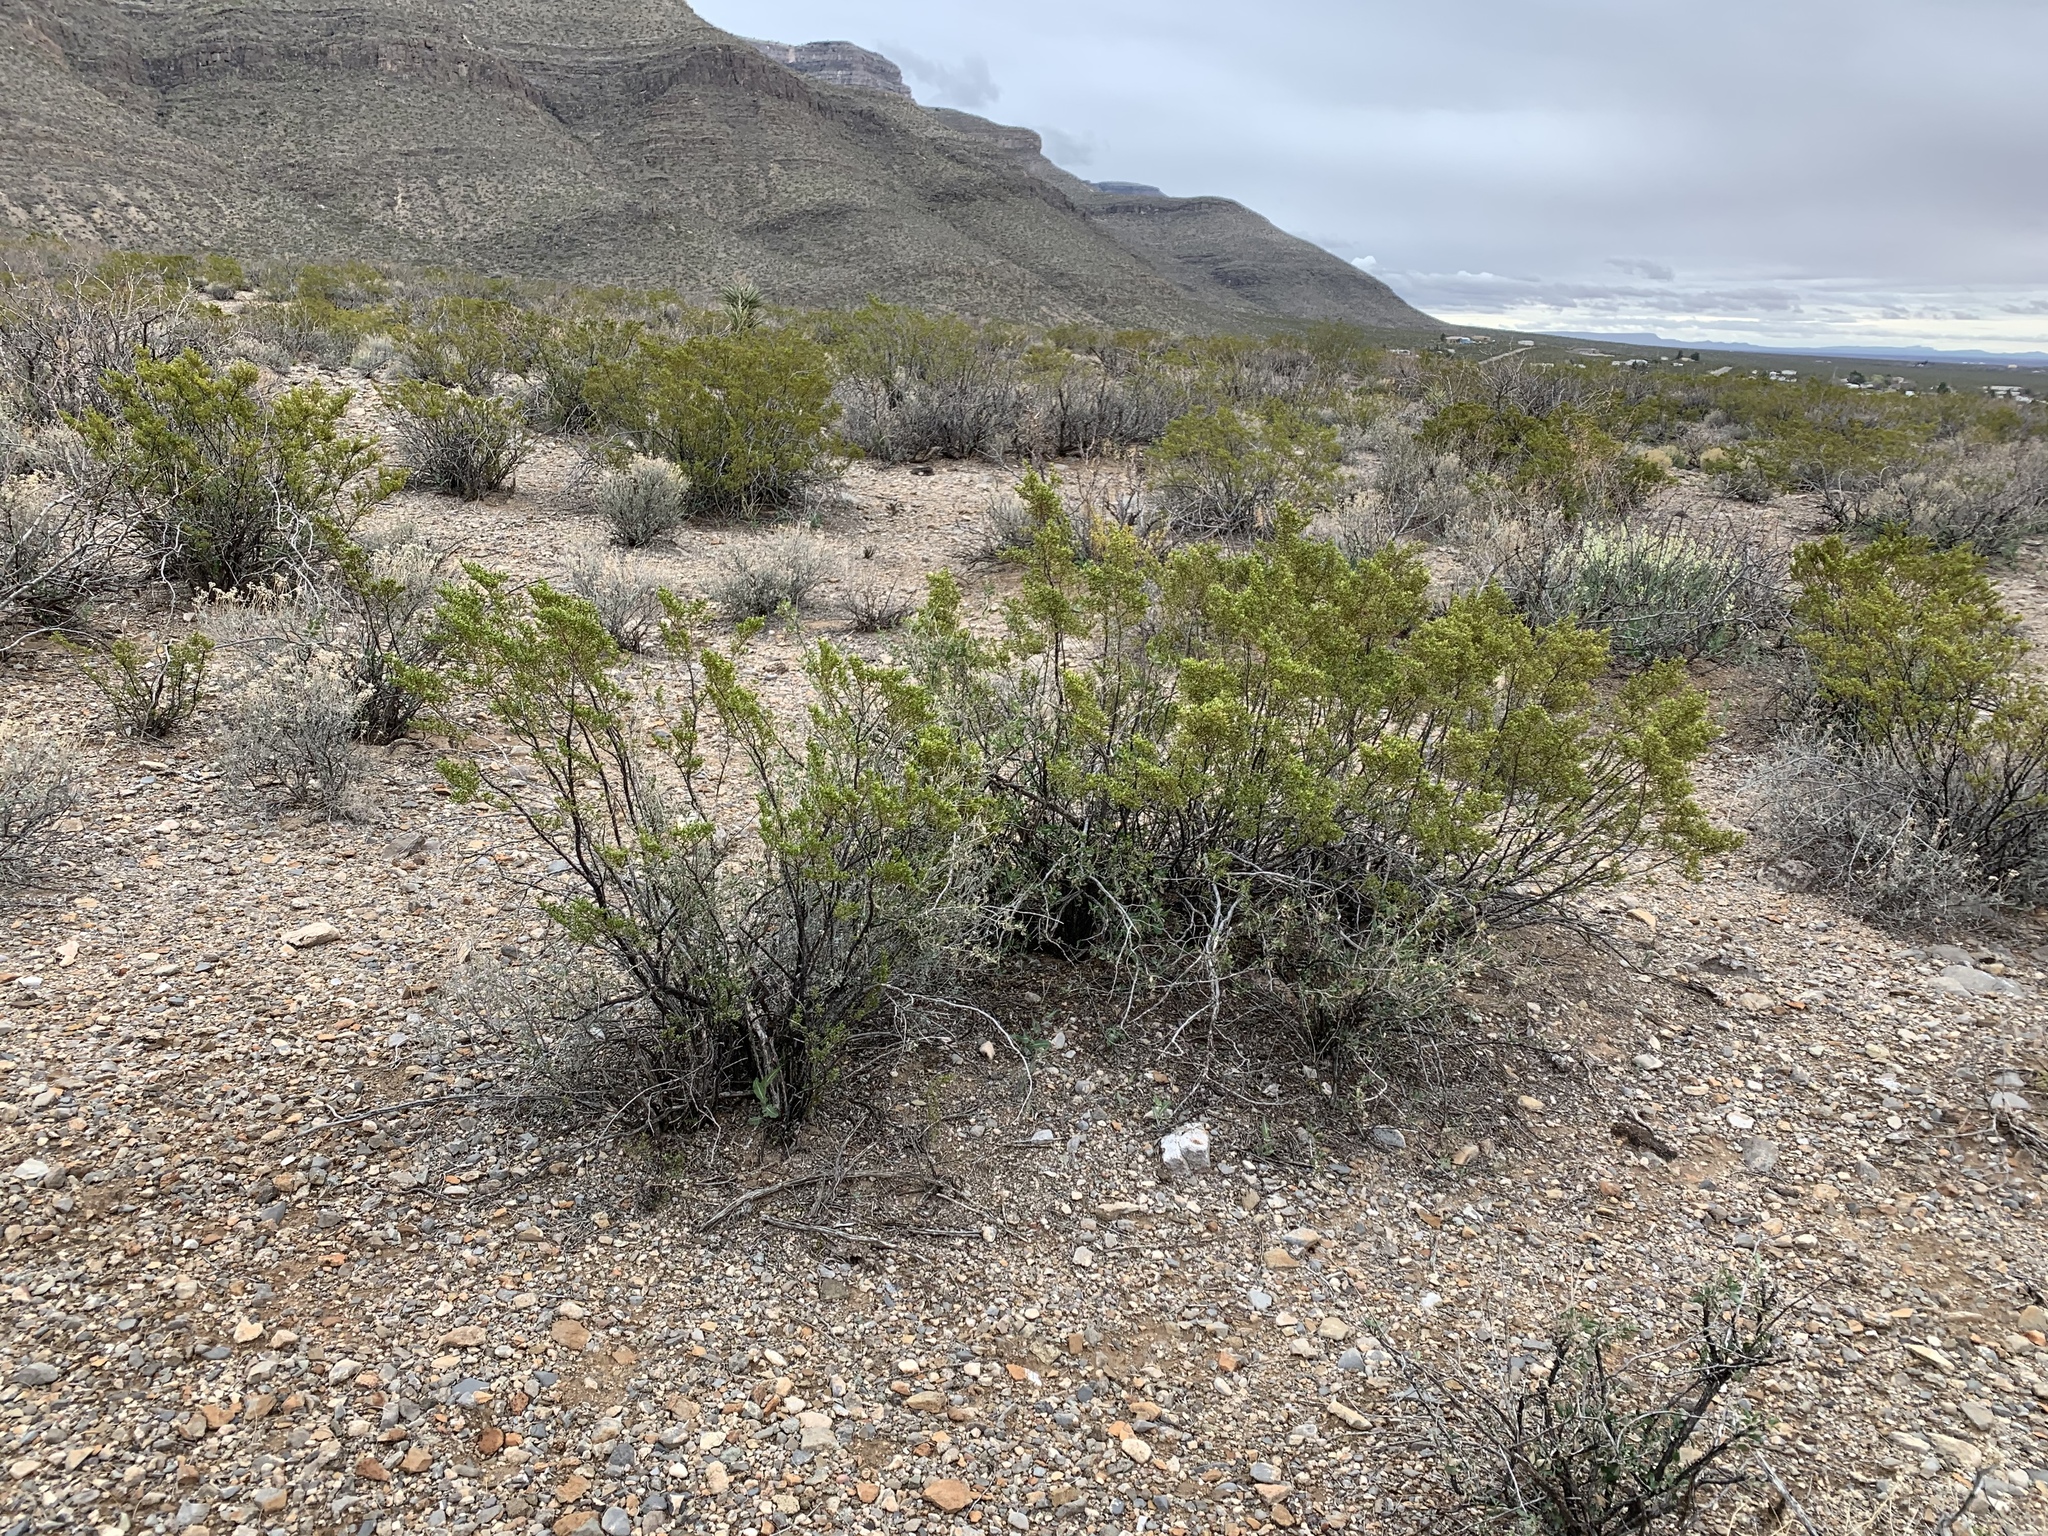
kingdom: Plantae
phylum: Tracheophyta
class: Magnoliopsida
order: Zygophyllales
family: Zygophyllaceae
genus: Larrea
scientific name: Larrea tridentata
